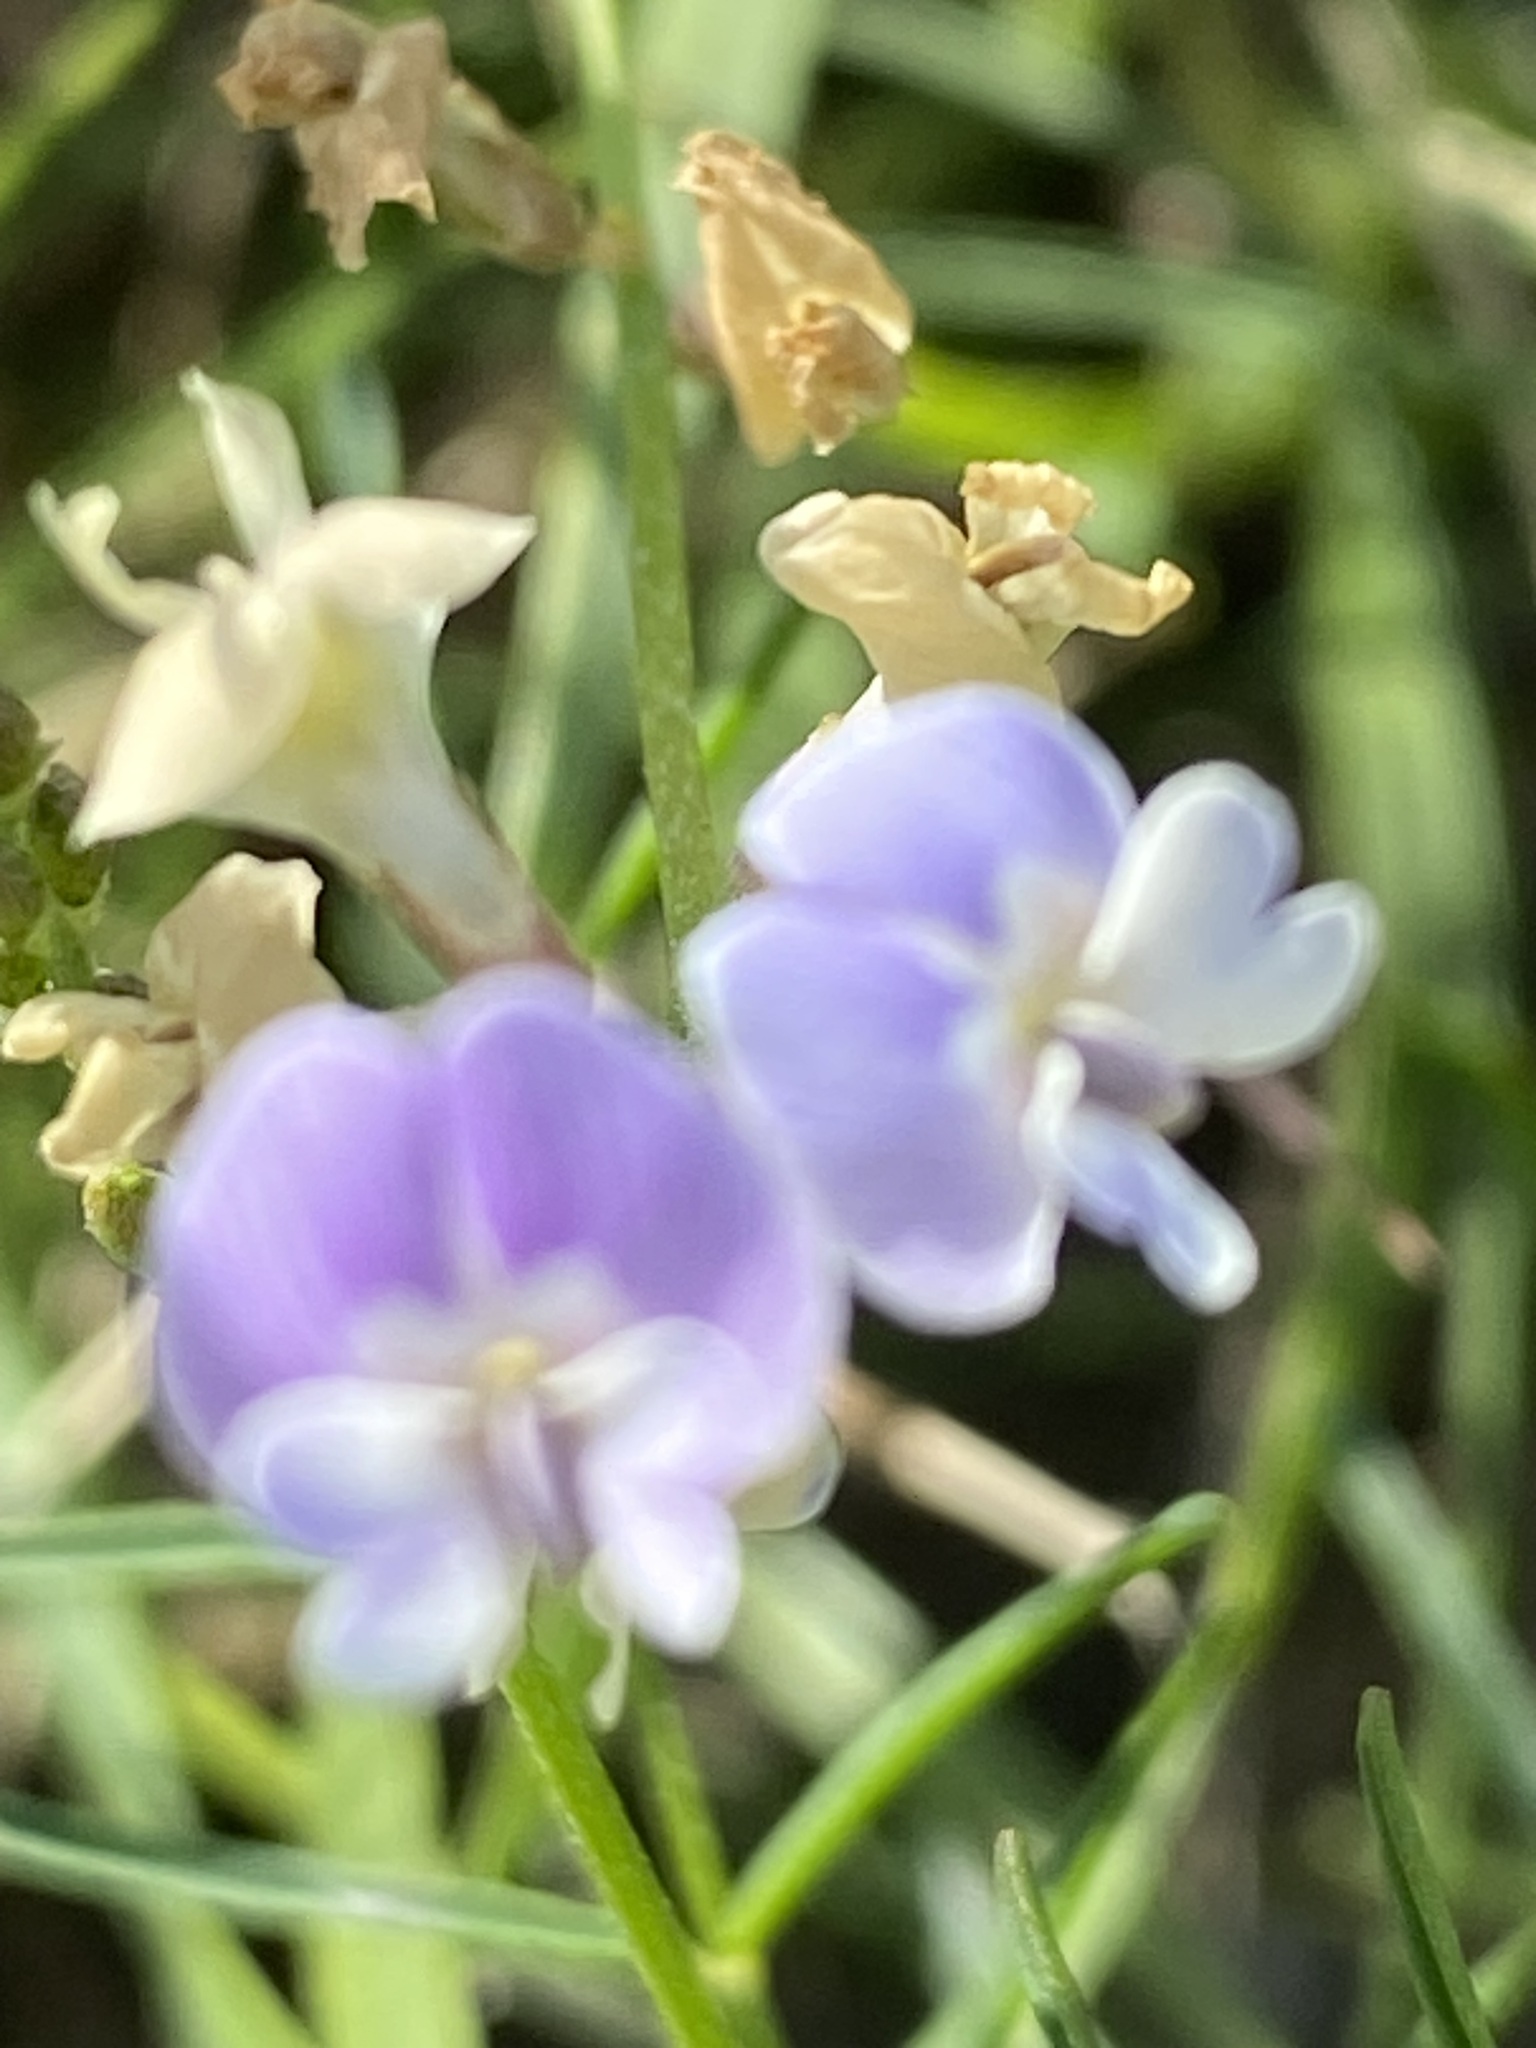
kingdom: Plantae
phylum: Tracheophyta
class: Magnoliopsida
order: Fabales
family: Fabaceae
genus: Astragalus
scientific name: Astragalus austriacus
